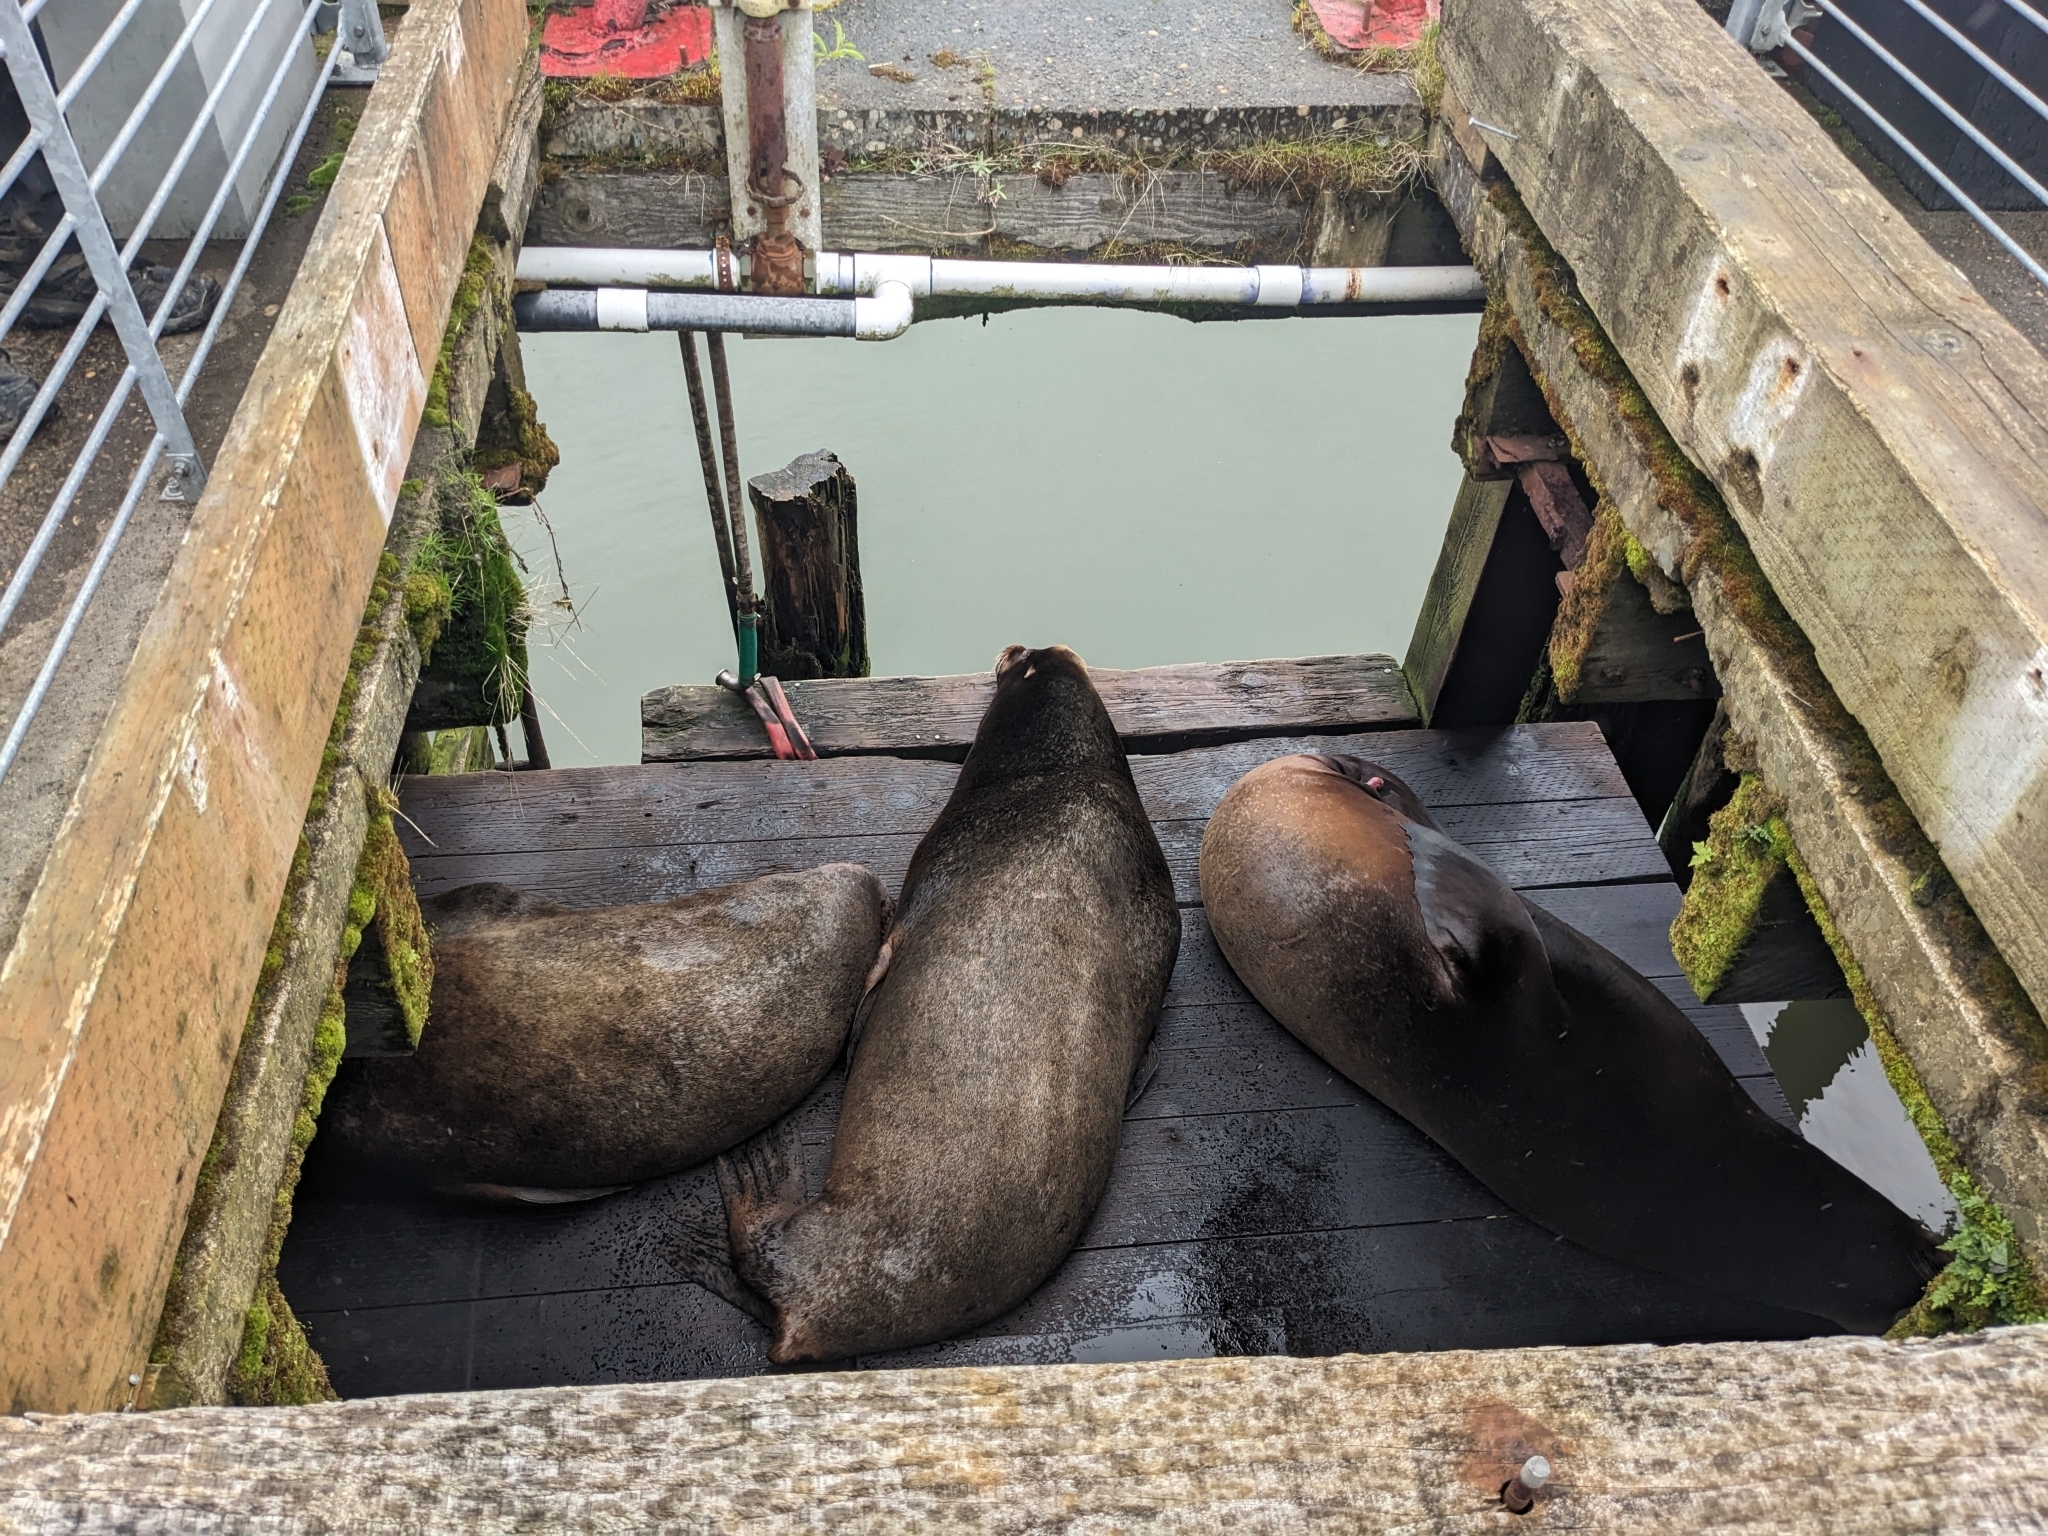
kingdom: Animalia
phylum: Chordata
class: Mammalia
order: Carnivora
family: Otariidae
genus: Zalophus
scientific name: Zalophus californianus
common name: California sea lion
